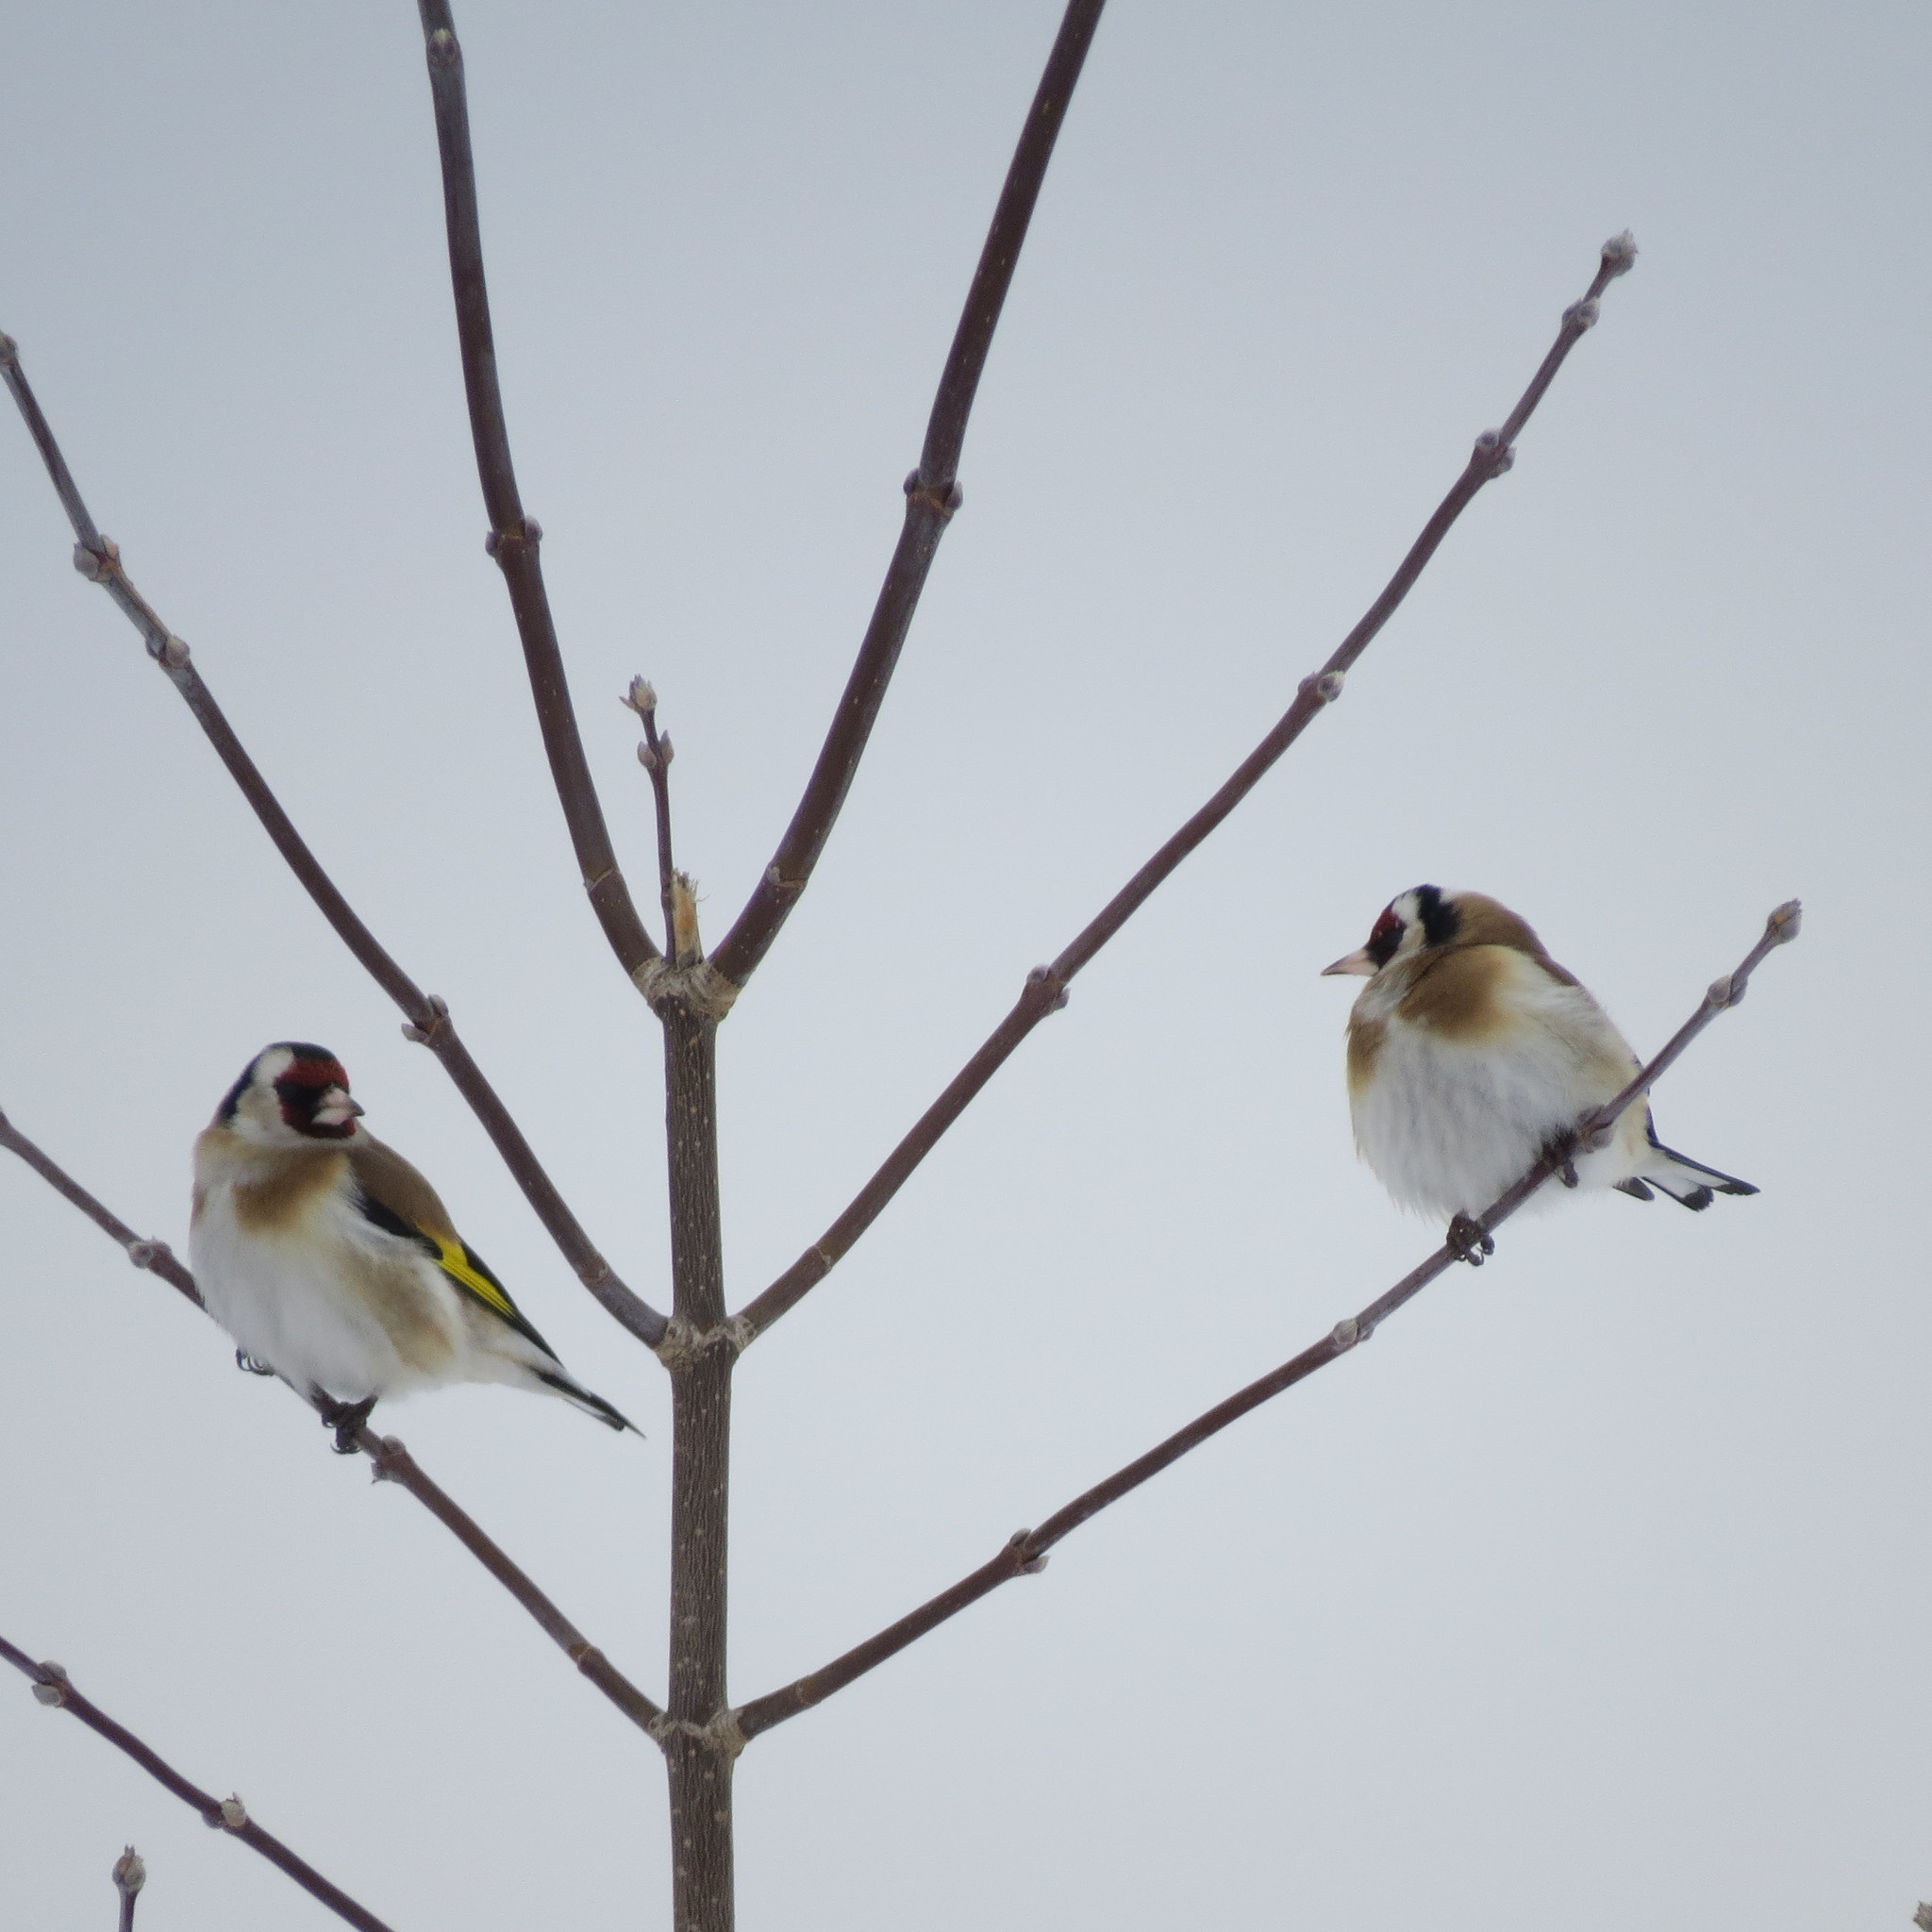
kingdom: Animalia
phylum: Chordata
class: Aves
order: Passeriformes
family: Fringillidae
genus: Carduelis
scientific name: Carduelis carduelis
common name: European goldfinch
